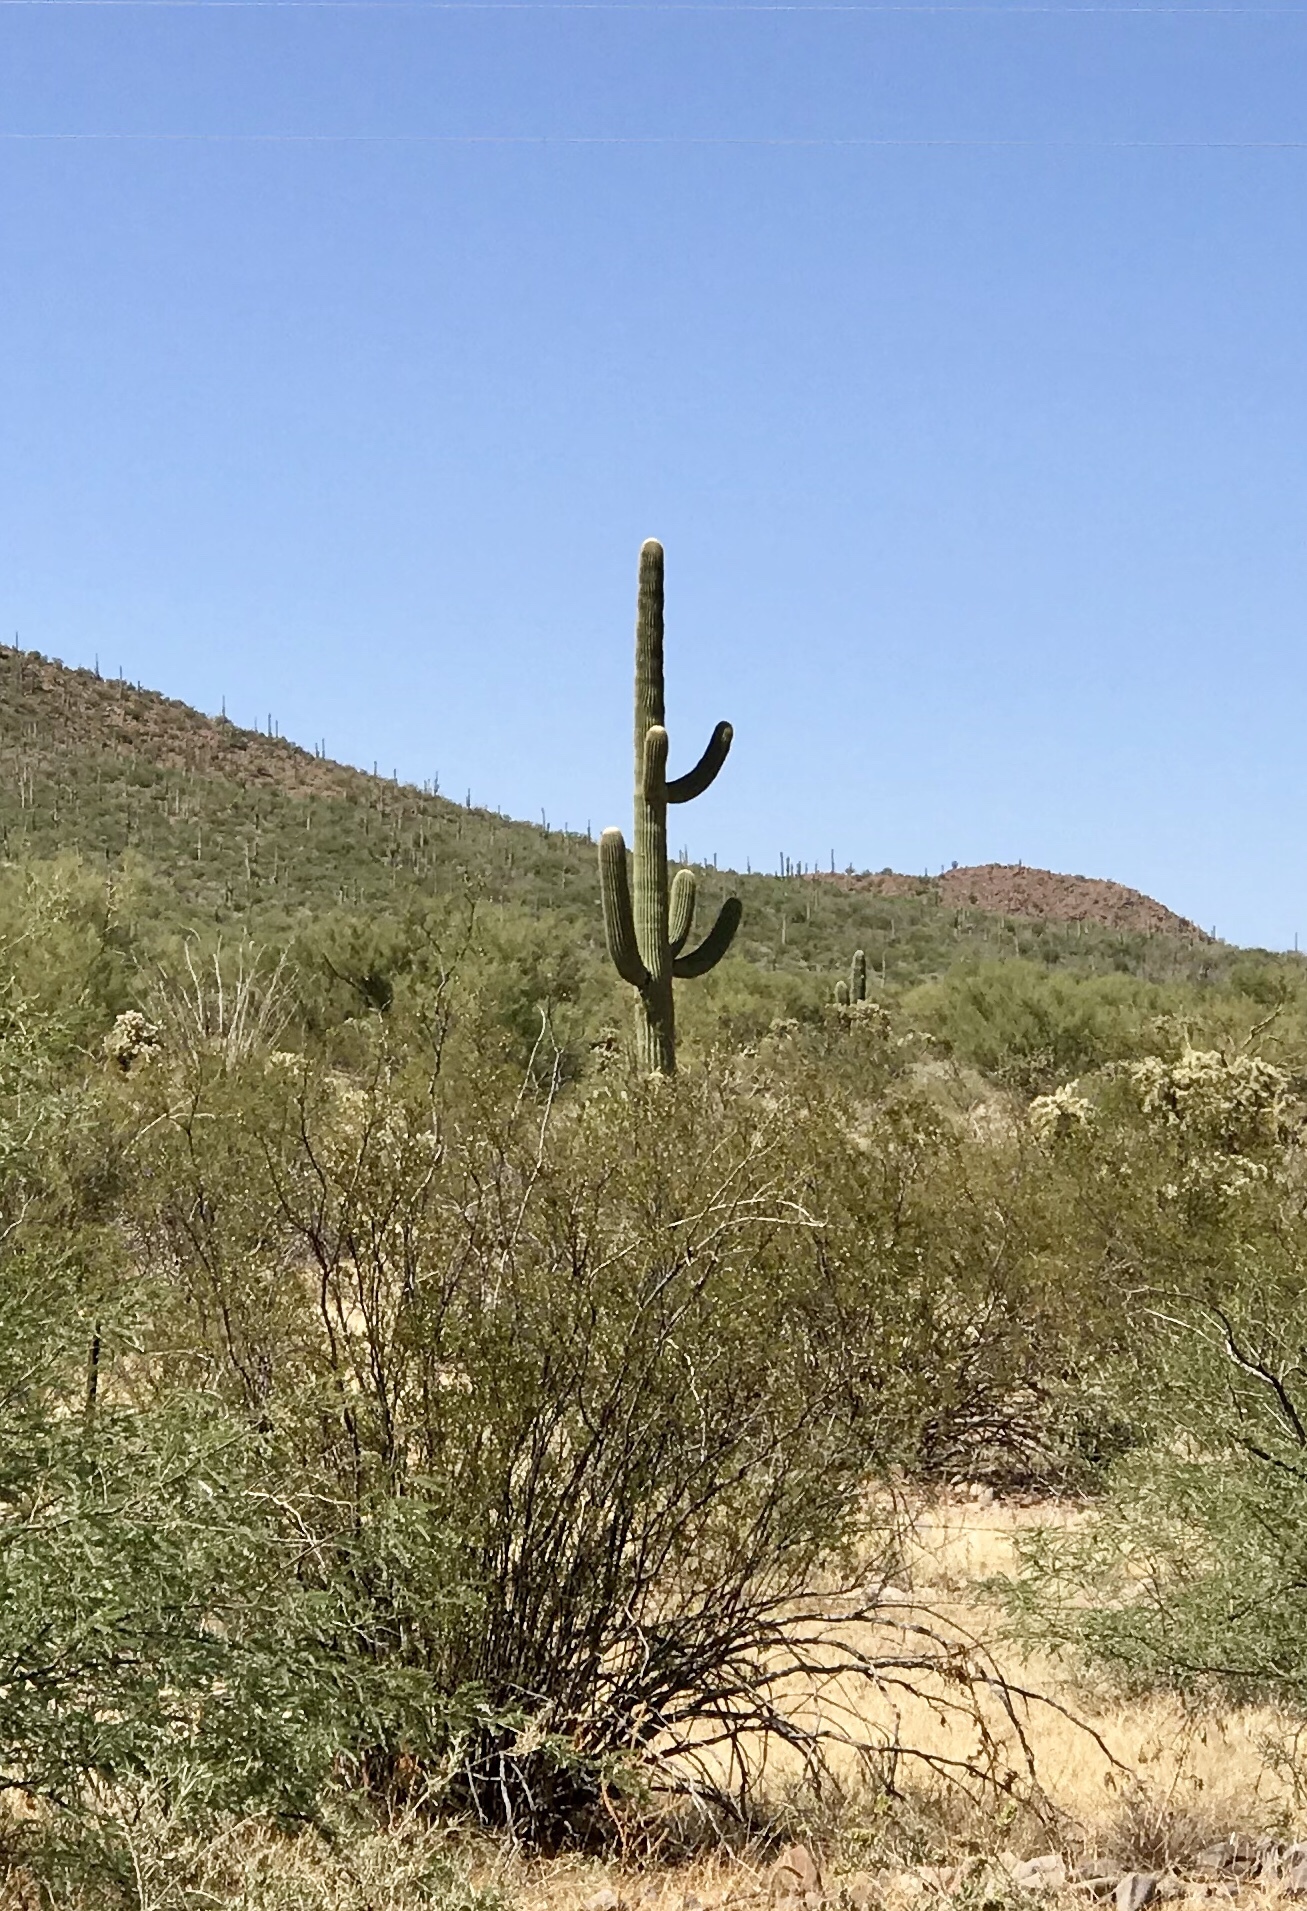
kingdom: Plantae
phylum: Tracheophyta
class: Magnoliopsida
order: Caryophyllales
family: Cactaceae
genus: Carnegiea
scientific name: Carnegiea gigantea
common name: Saguaro
